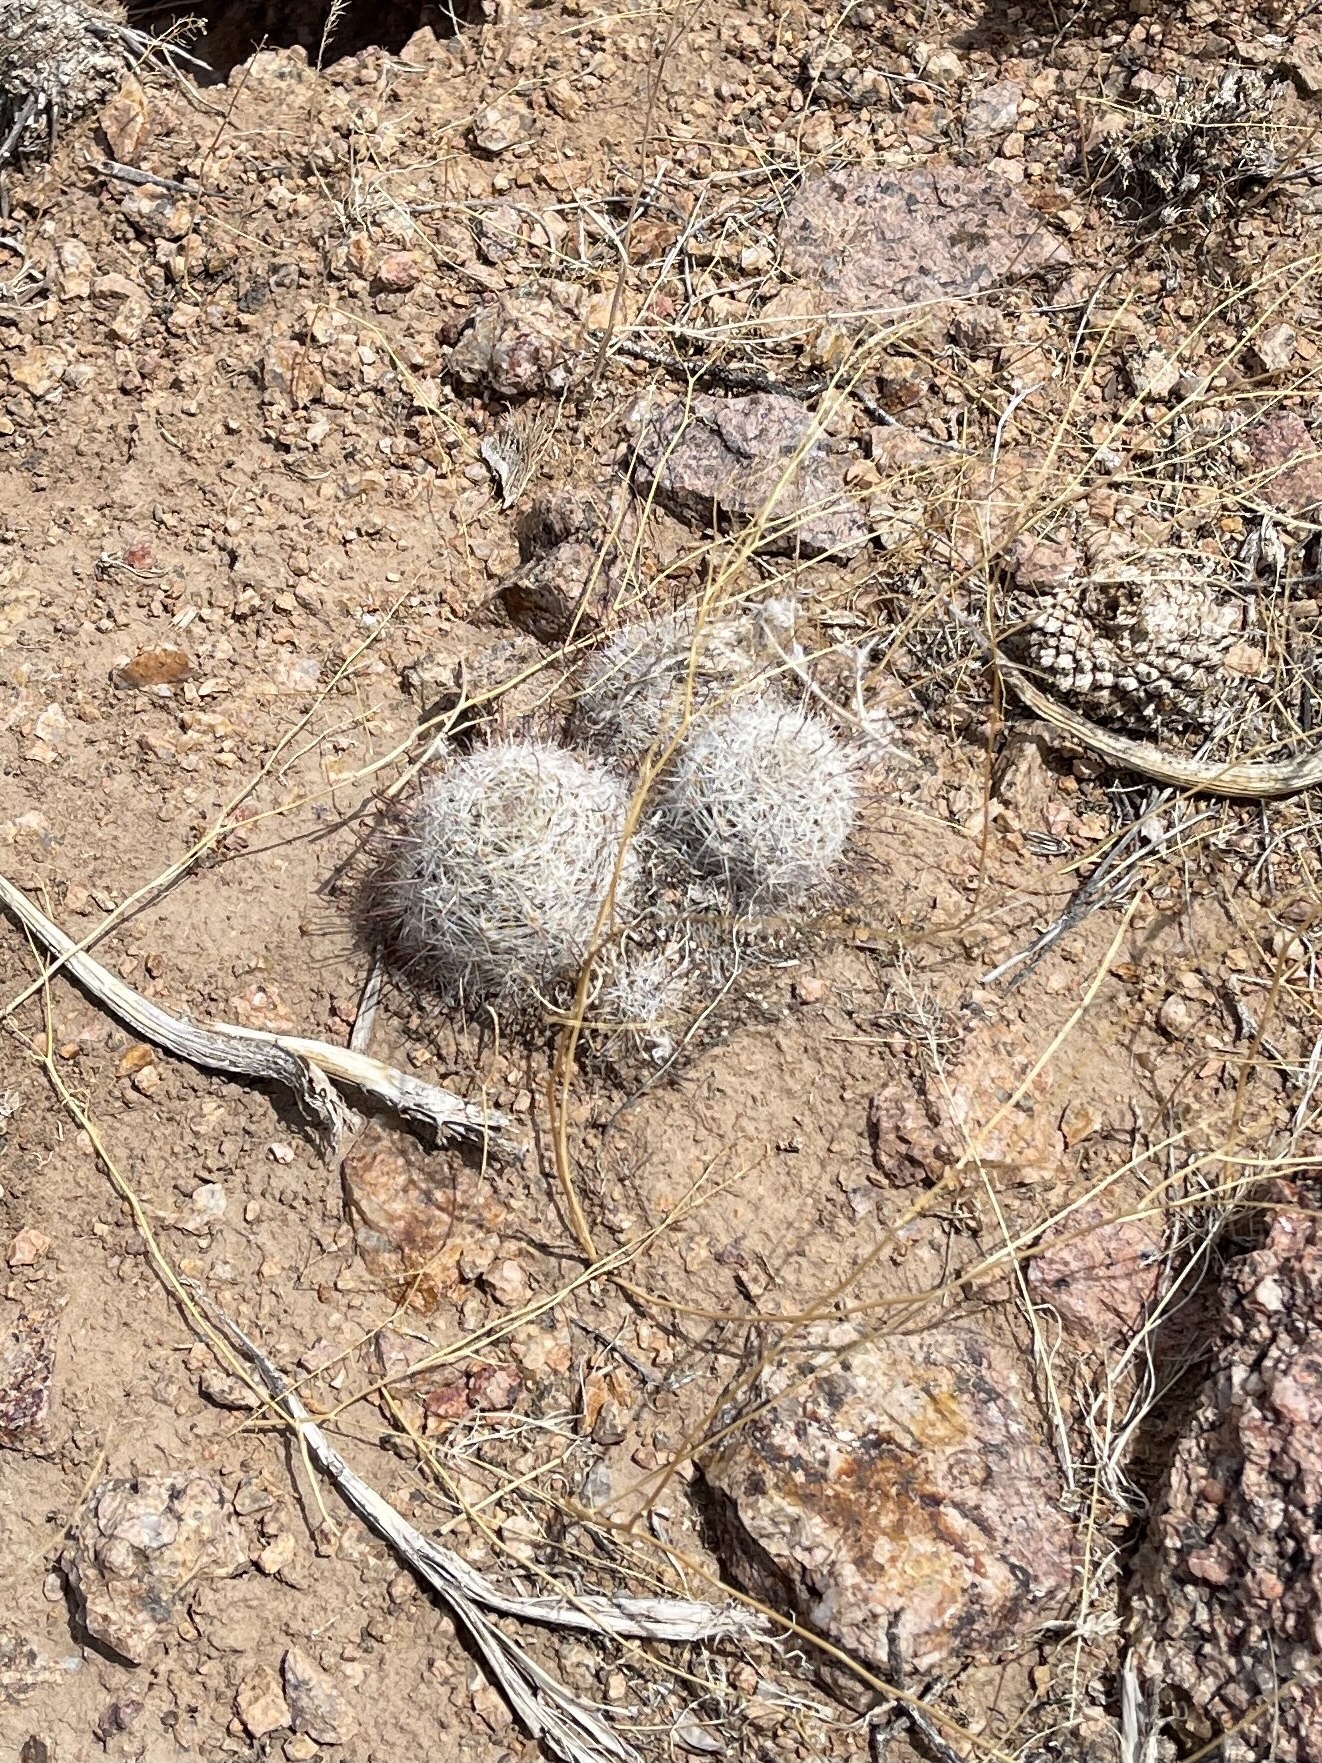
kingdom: Plantae
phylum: Tracheophyta
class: Magnoliopsida
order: Caryophyllales
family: Cactaceae
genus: Cochemiea
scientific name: Cochemiea grahamii
